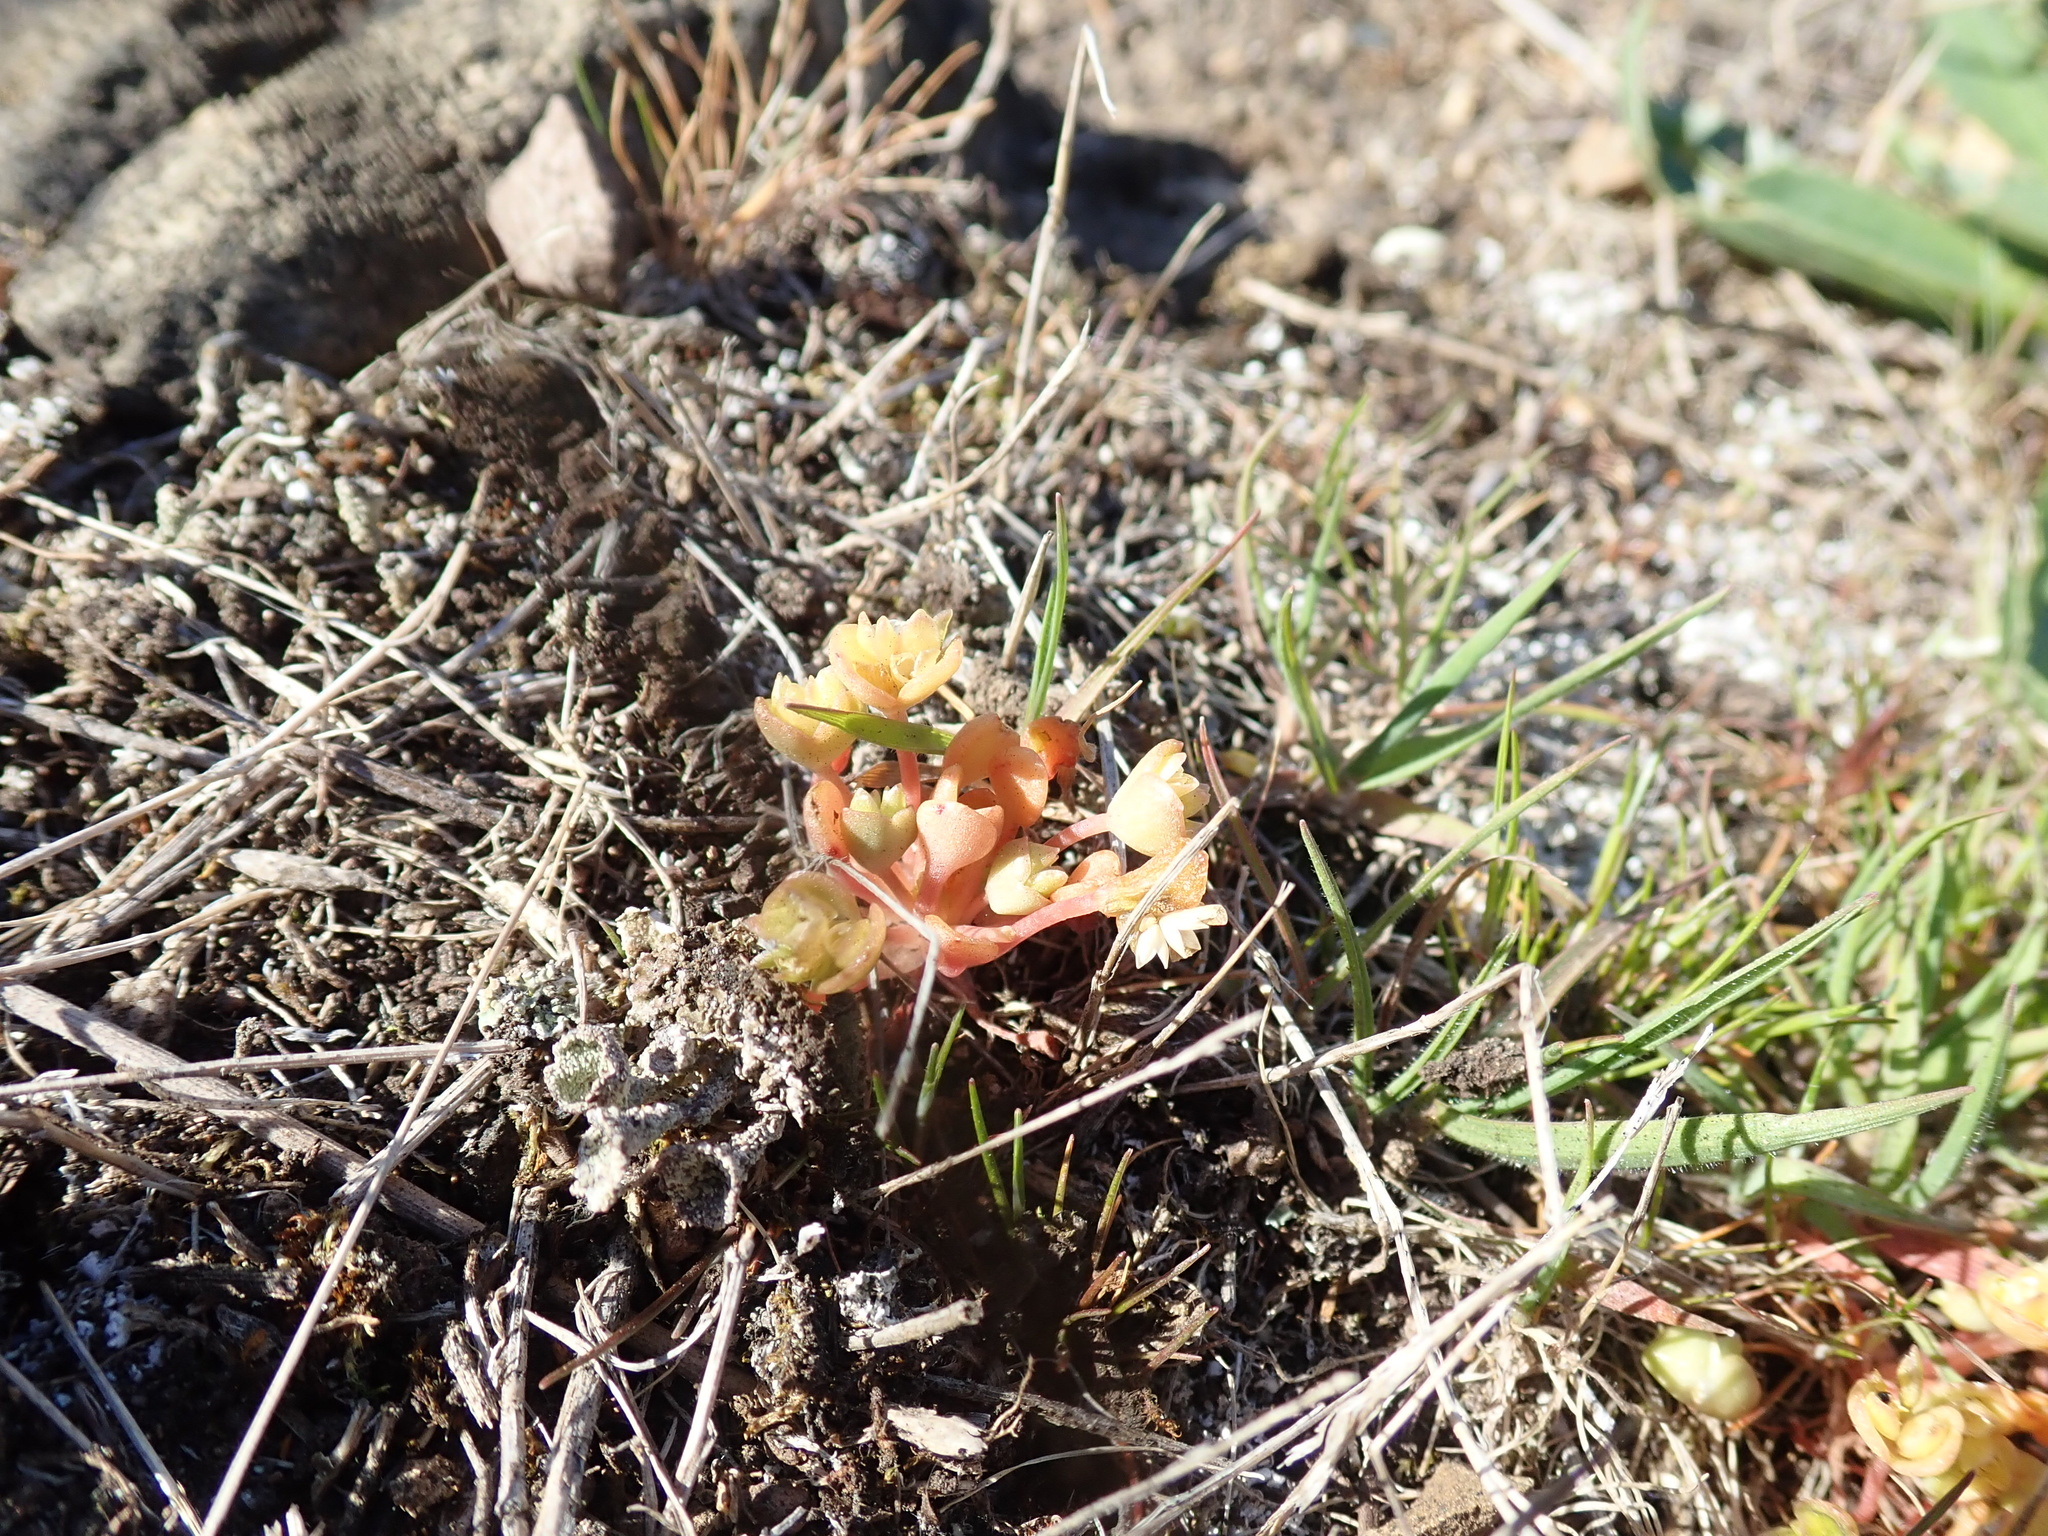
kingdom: Plantae
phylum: Tracheophyta
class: Magnoliopsida
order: Caryophyllales
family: Montiaceae
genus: Claytonia
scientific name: Claytonia rubra
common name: Erubescent miner's-lettuce
